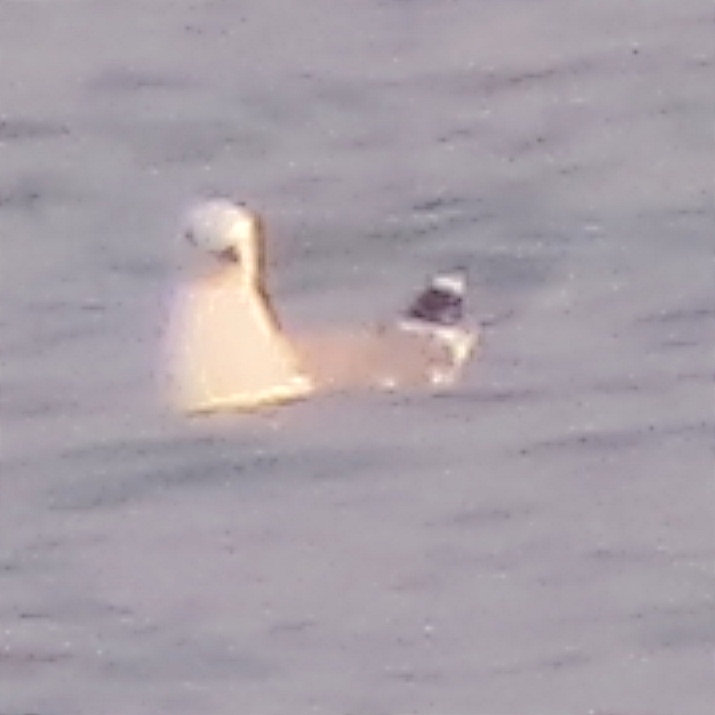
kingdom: Animalia
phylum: Chordata
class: Aves
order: Charadriiformes
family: Laridae
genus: Larus
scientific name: Larus canus
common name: Mew gull
